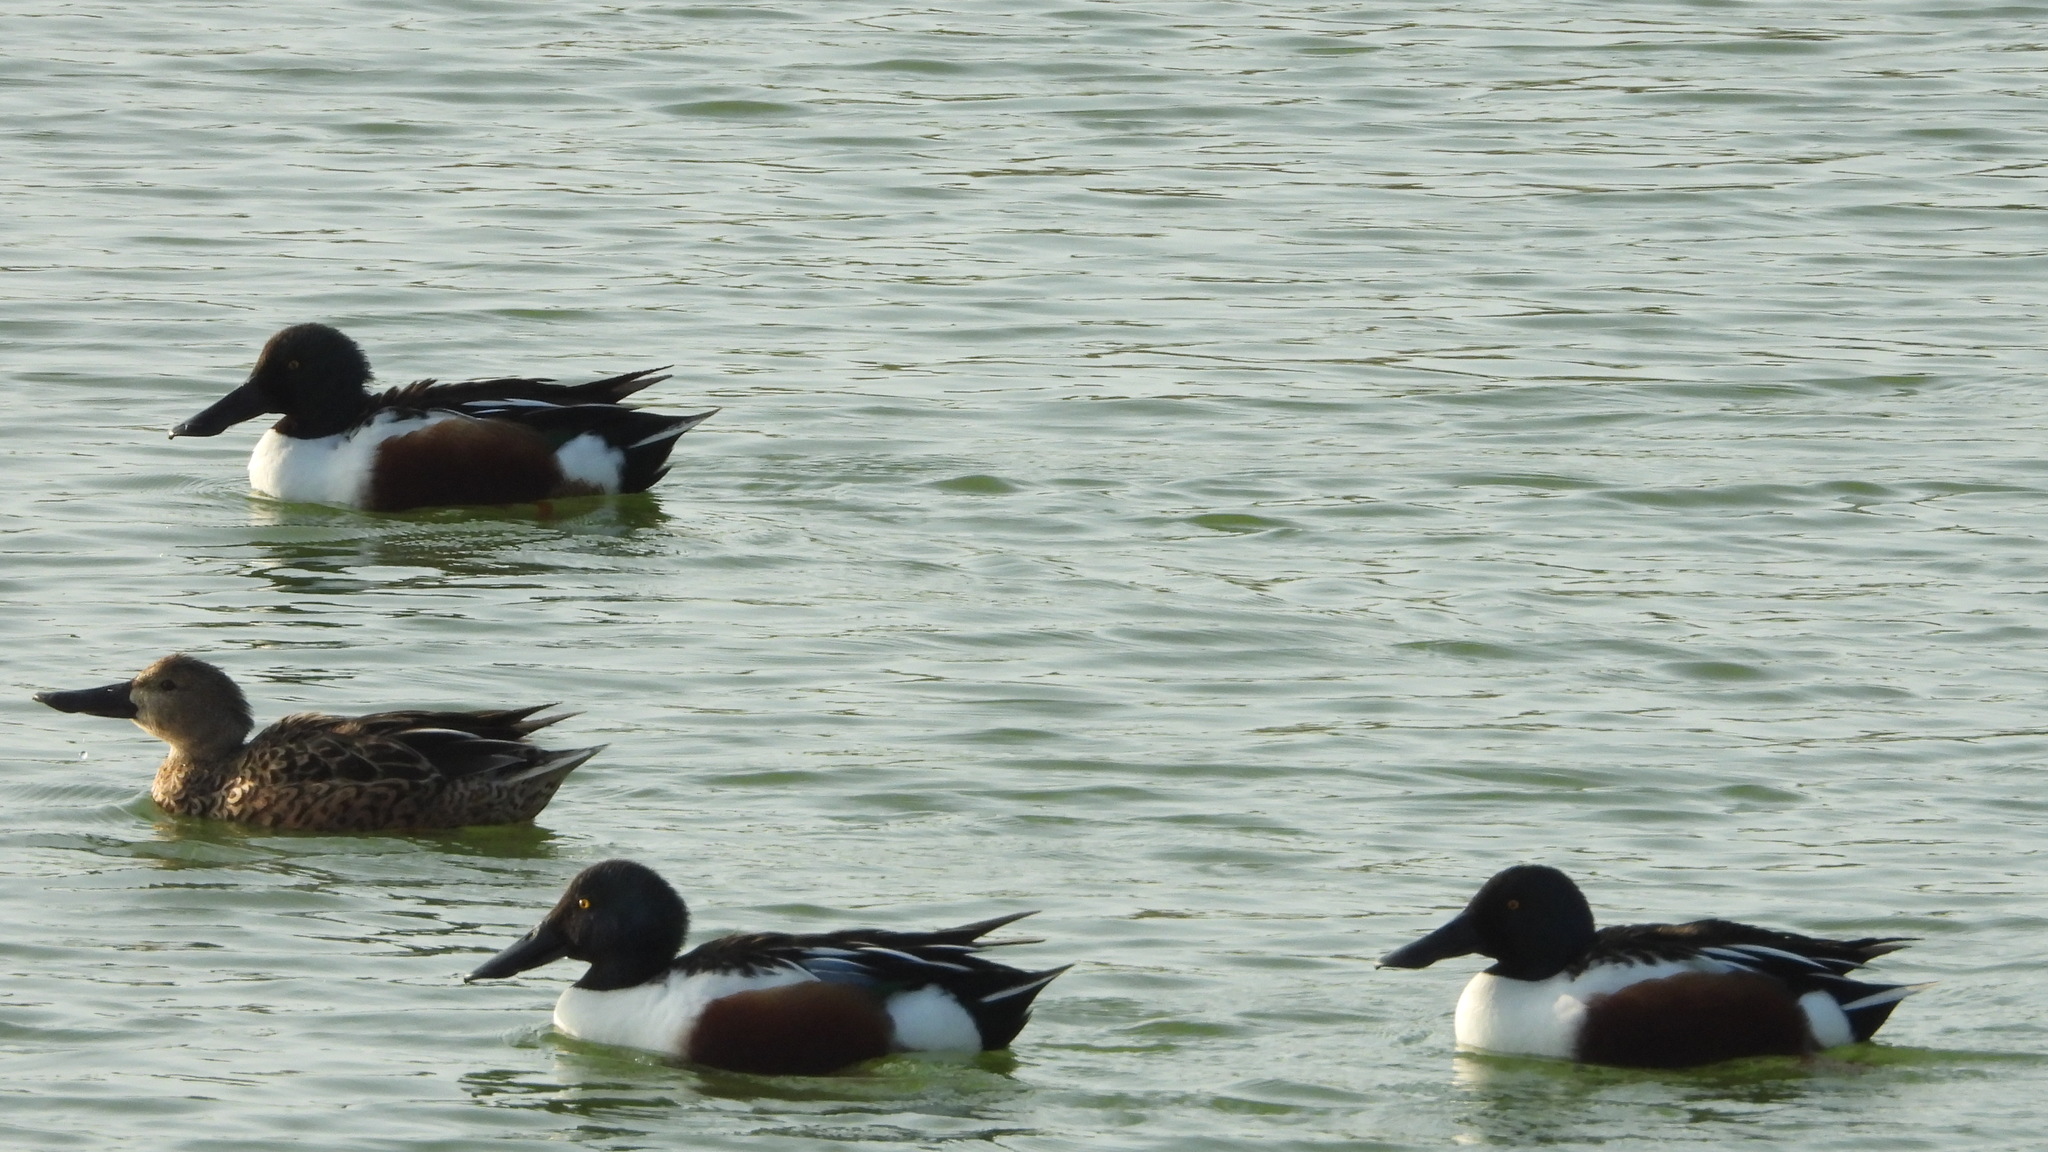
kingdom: Animalia
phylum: Chordata
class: Aves
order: Anseriformes
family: Anatidae
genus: Spatula
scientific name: Spatula clypeata
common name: Northern shoveler
